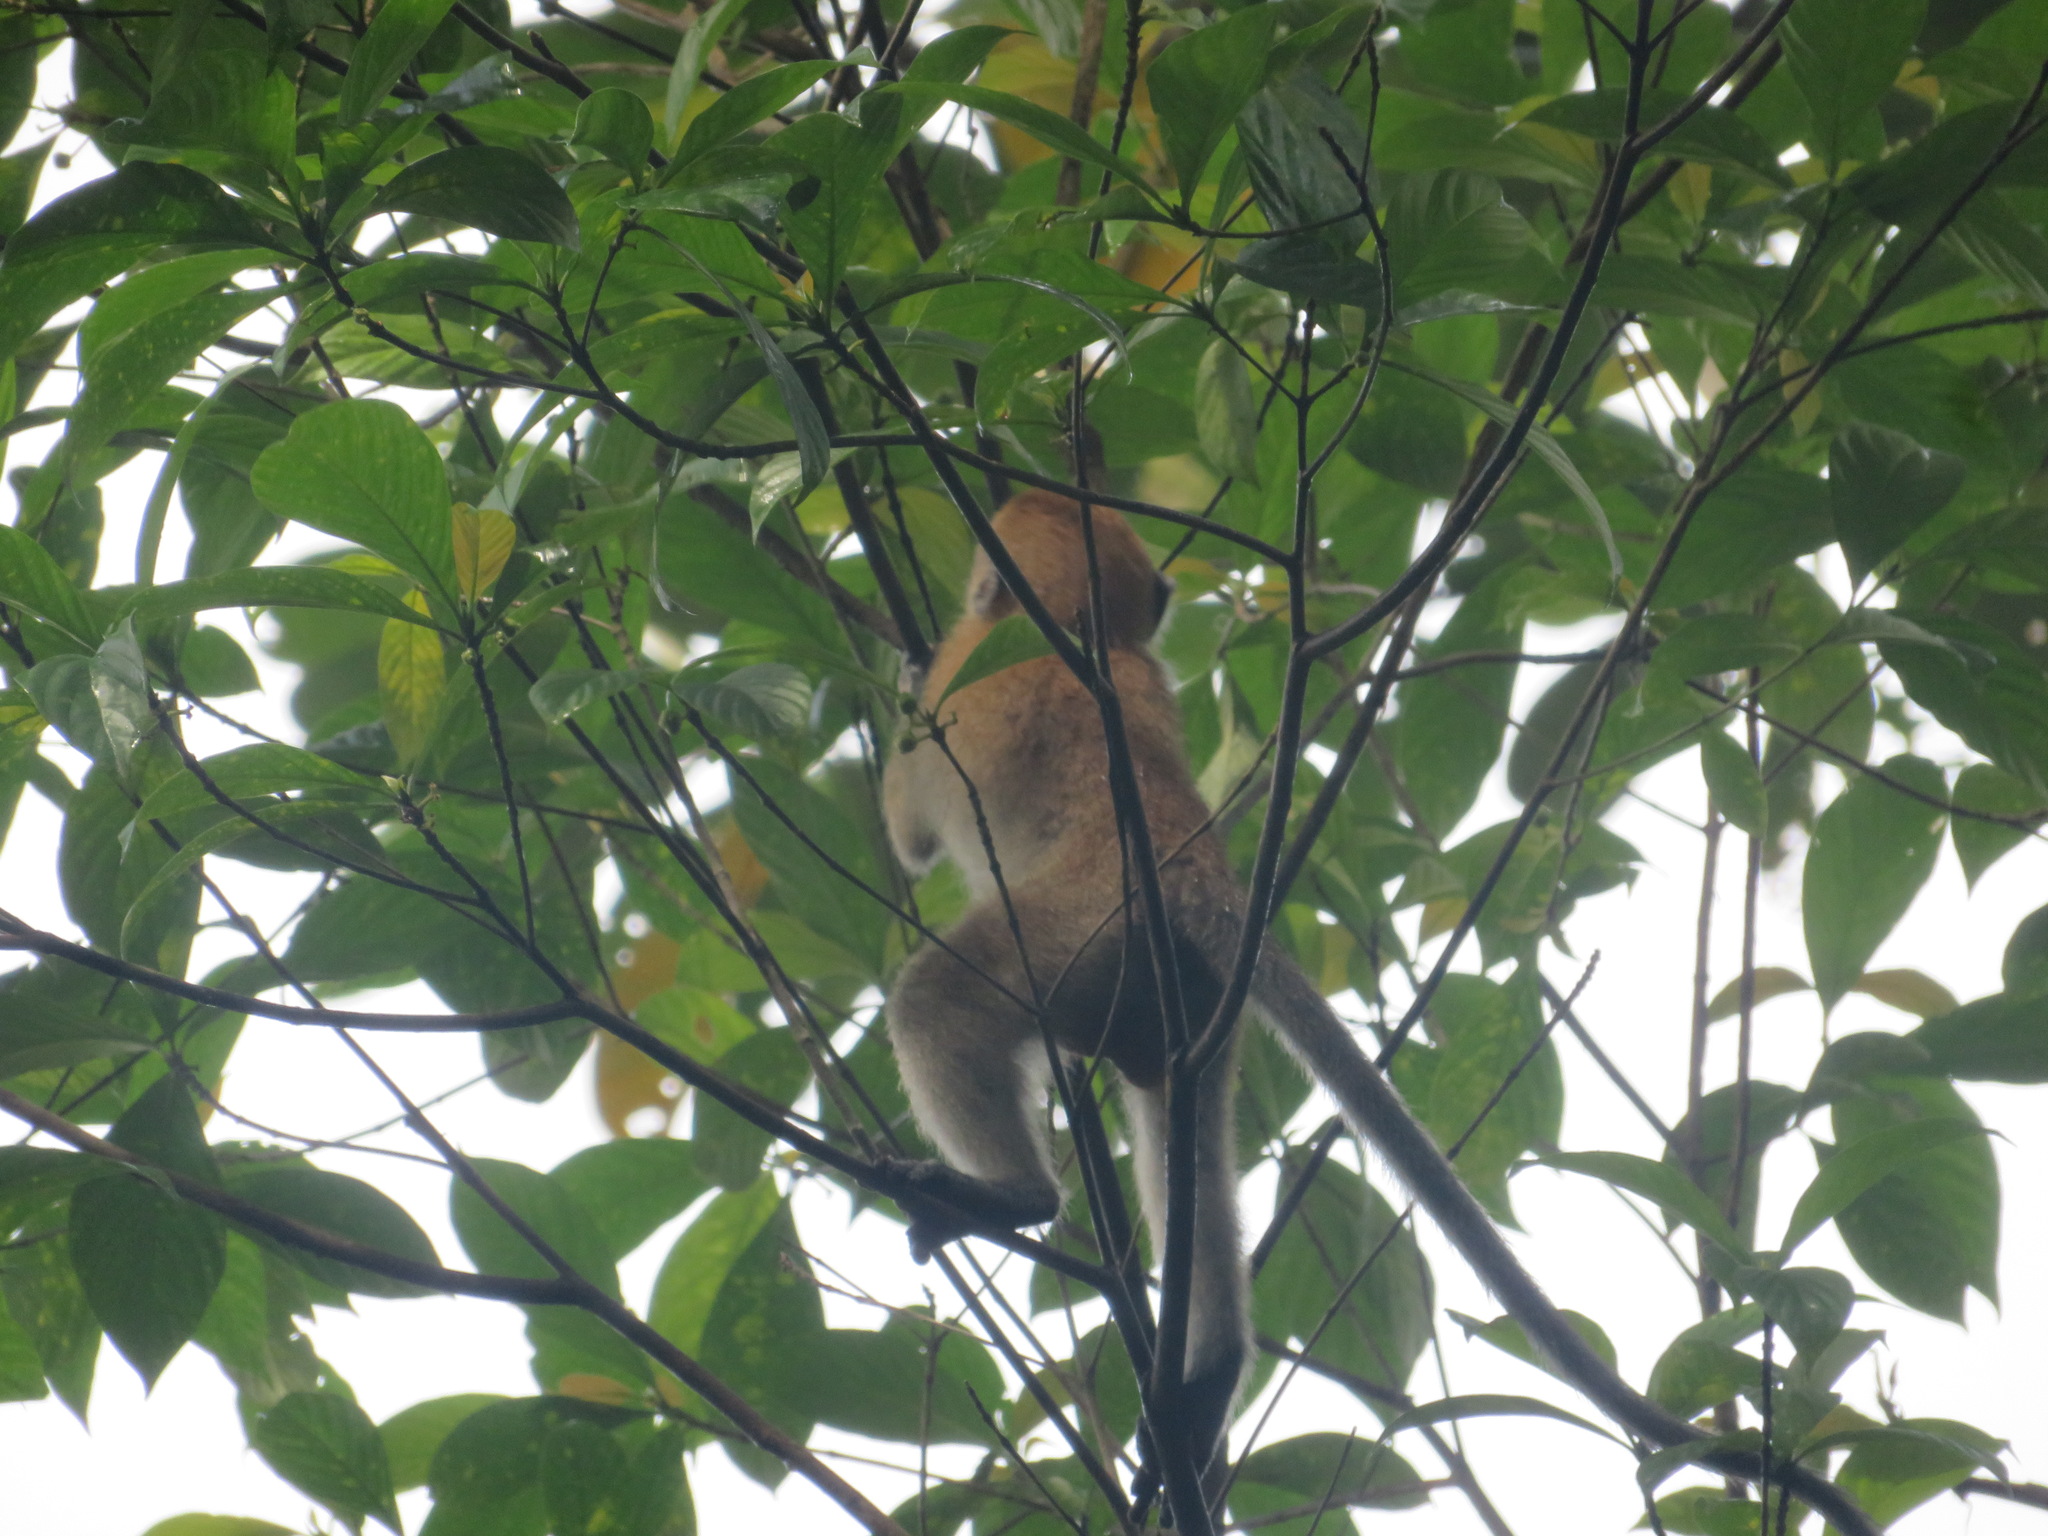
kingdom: Animalia
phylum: Chordata
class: Mammalia
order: Primates
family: Cercopithecidae
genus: Macaca
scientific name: Macaca fascicularis
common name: Crab-eating macaque
